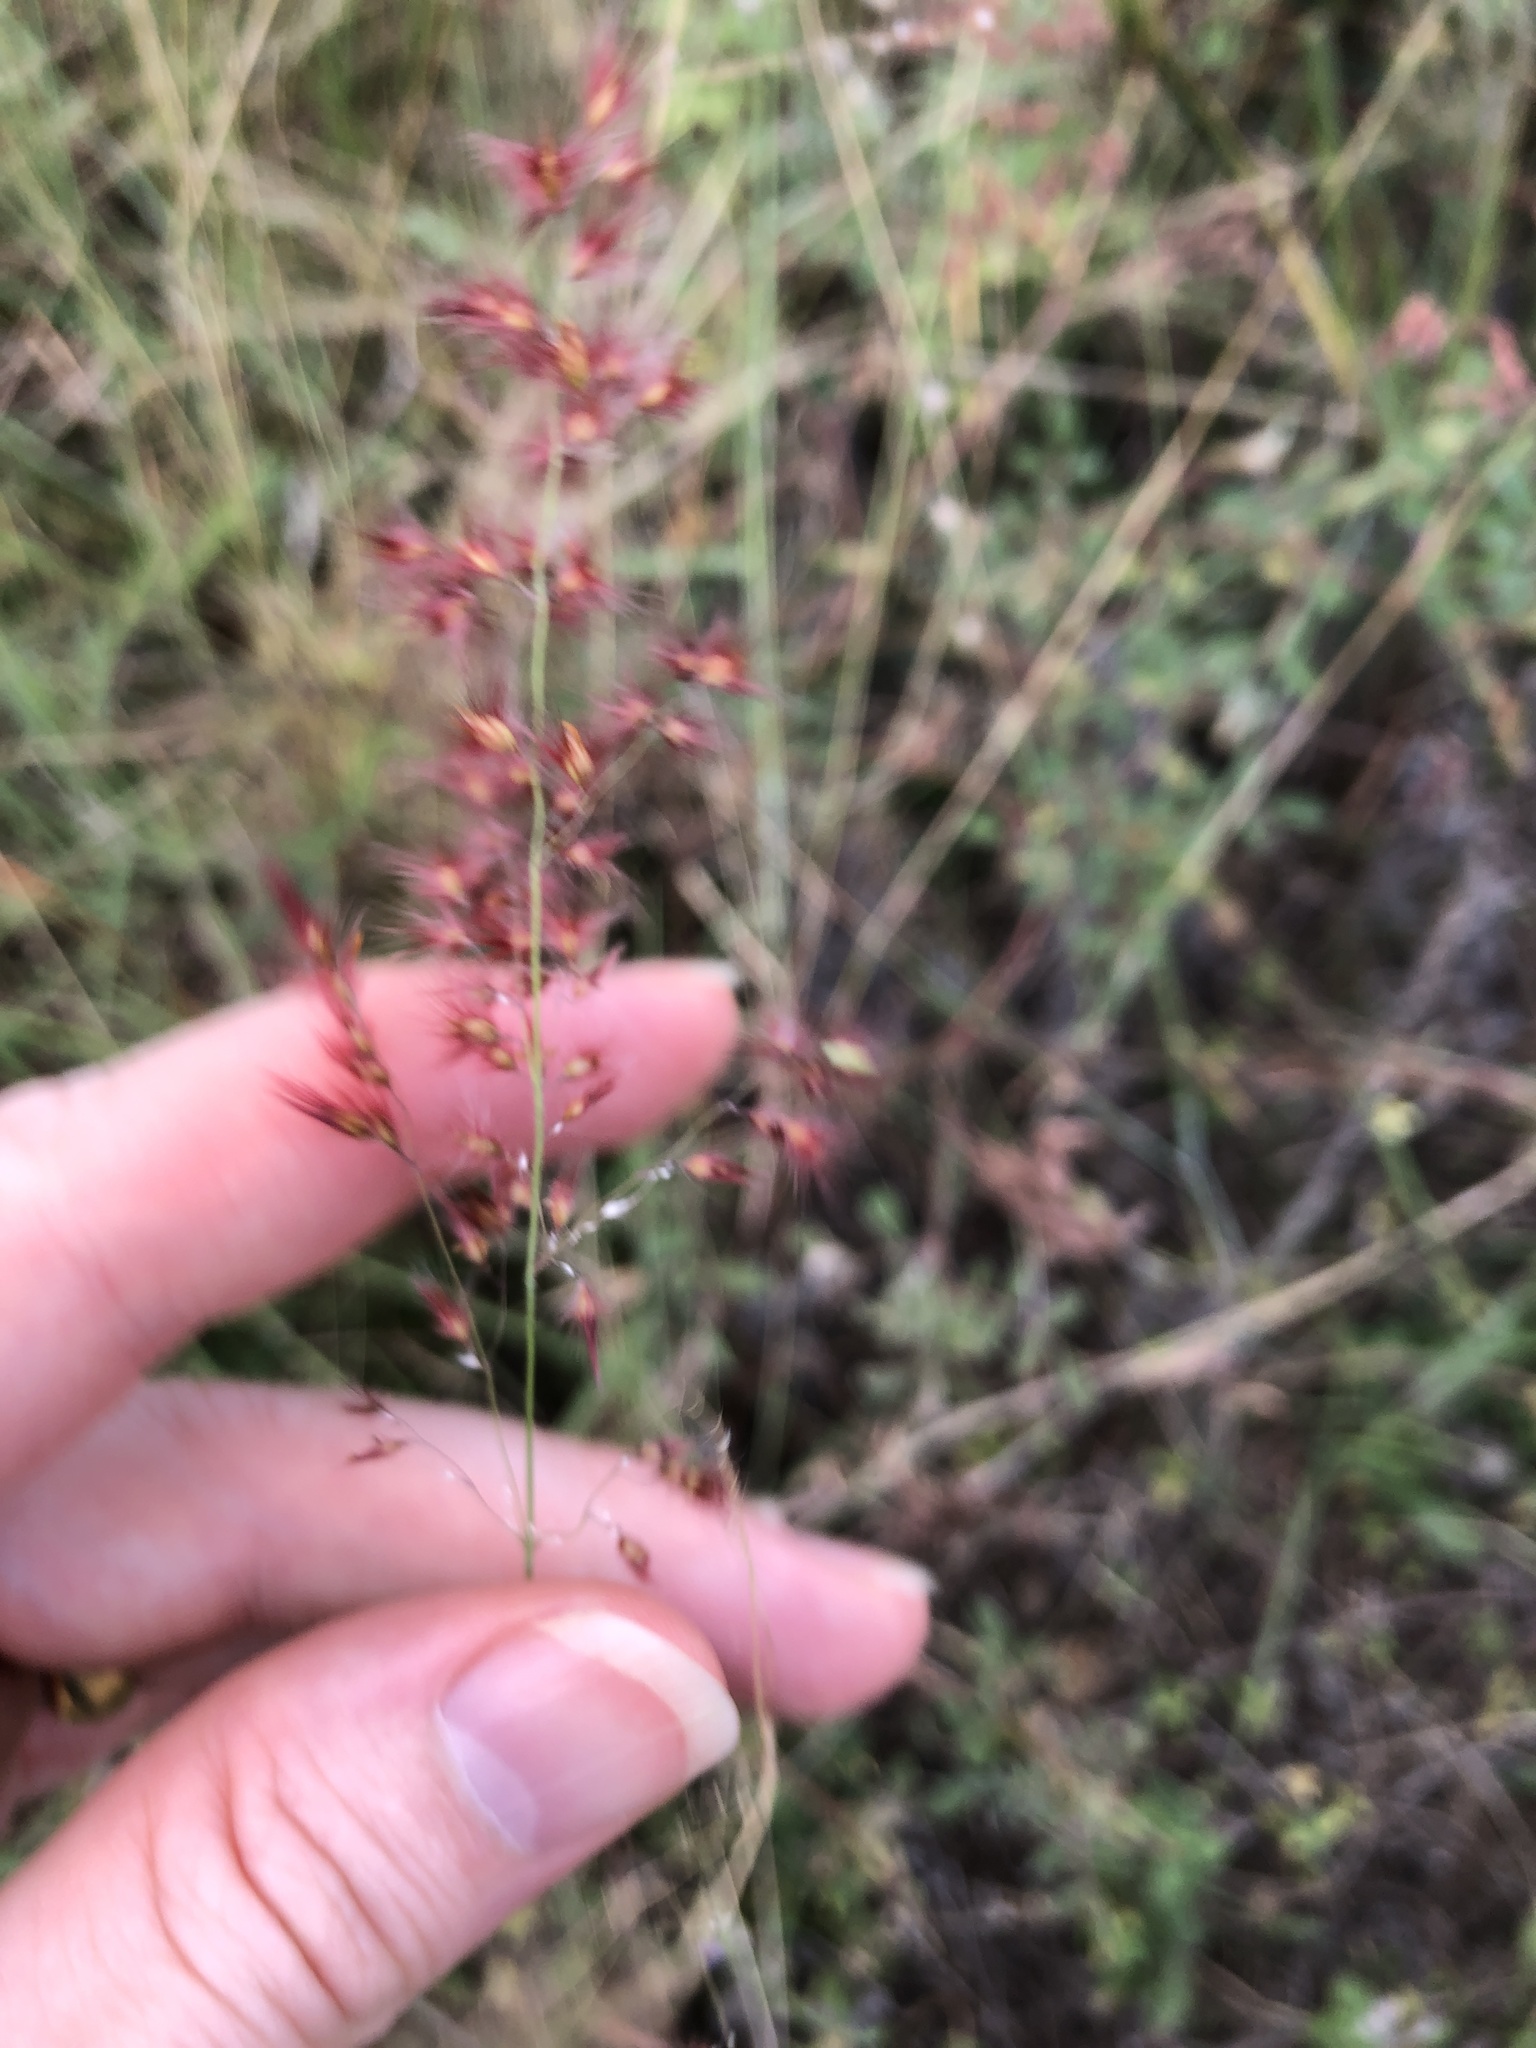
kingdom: Plantae
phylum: Tracheophyta
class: Liliopsida
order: Poales
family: Poaceae
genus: Melinis
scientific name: Melinis repens
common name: Rose natal grass
